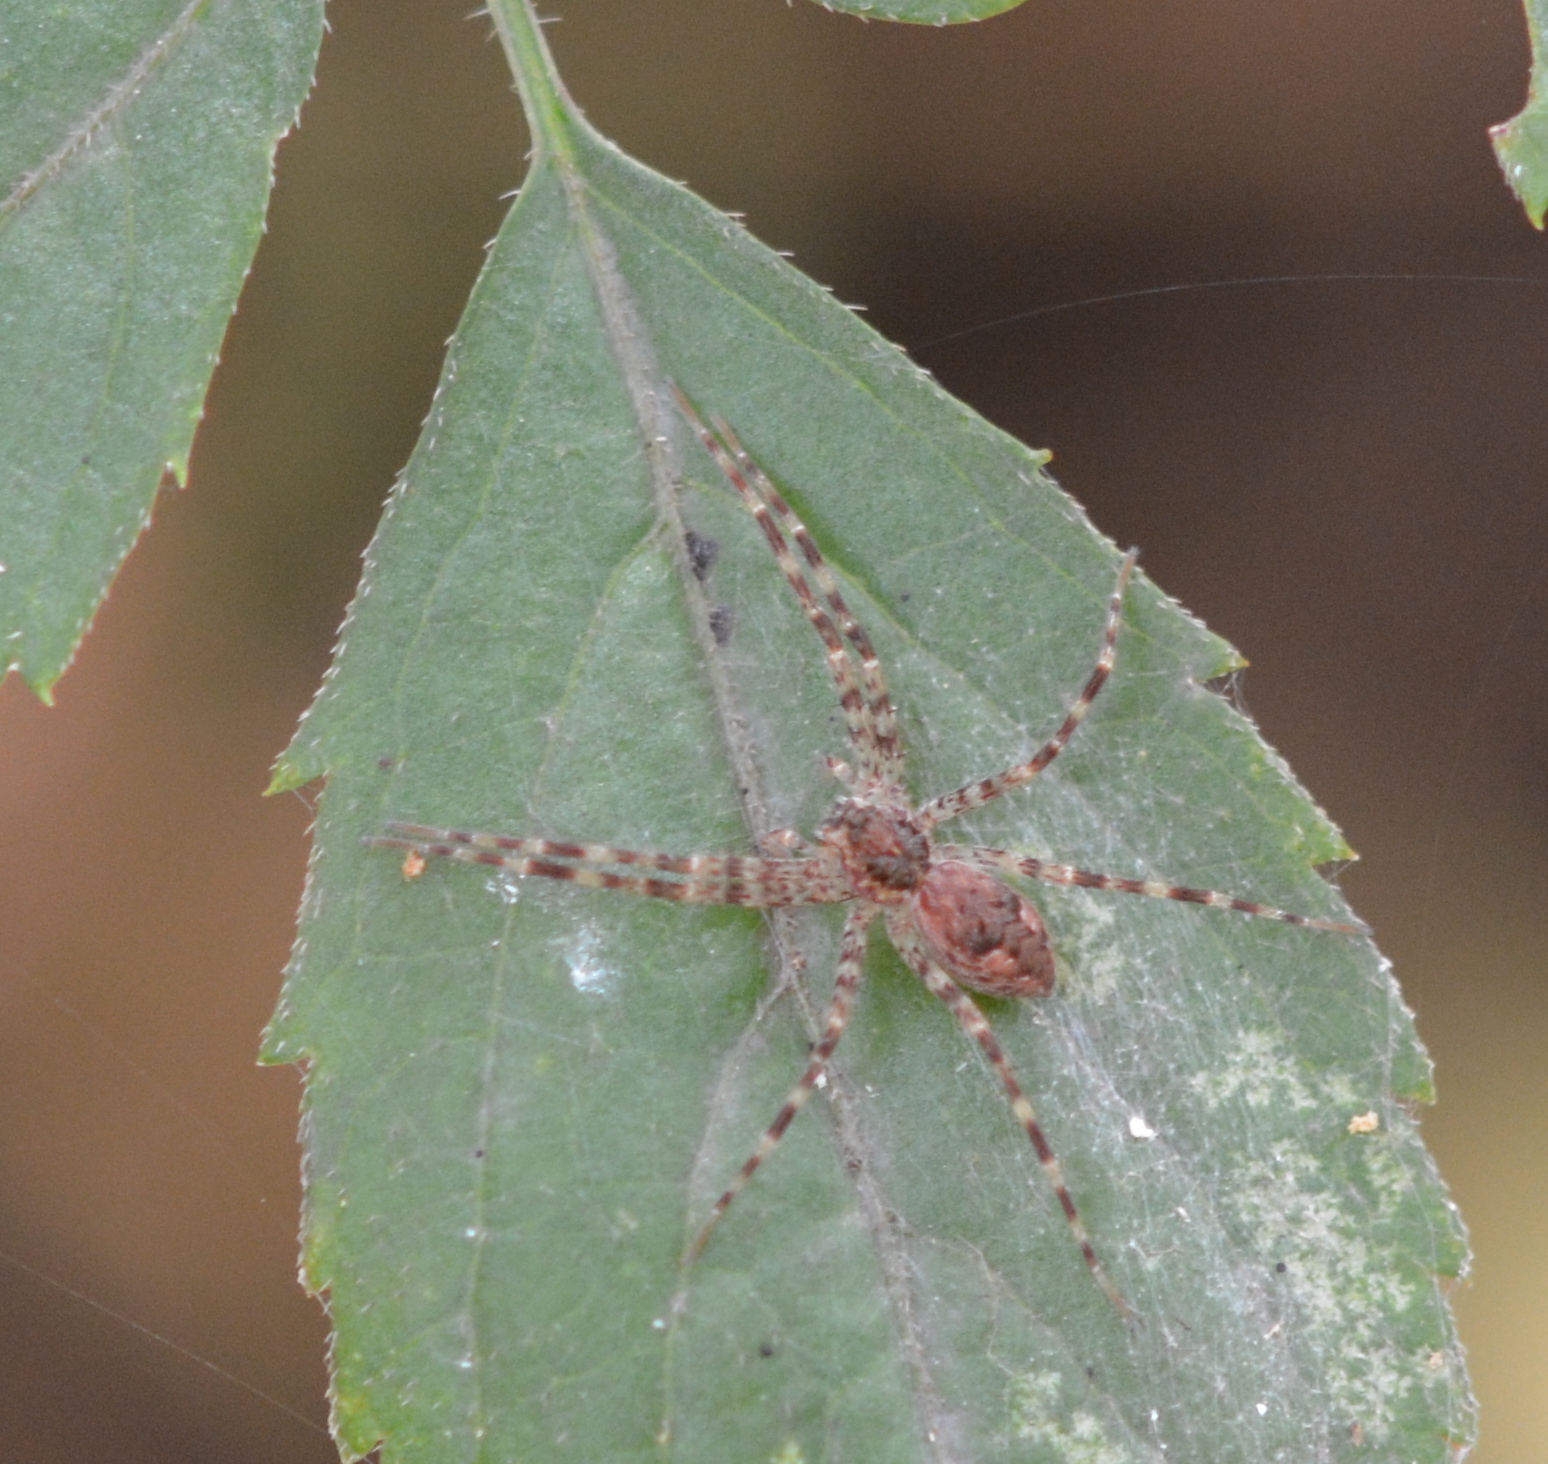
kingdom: Animalia
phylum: Arthropoda
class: Arachnida
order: Araneae
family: Pisauridae
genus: Dolomedes
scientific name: Dolomedes tenebrosus
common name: Dark fishing spider
